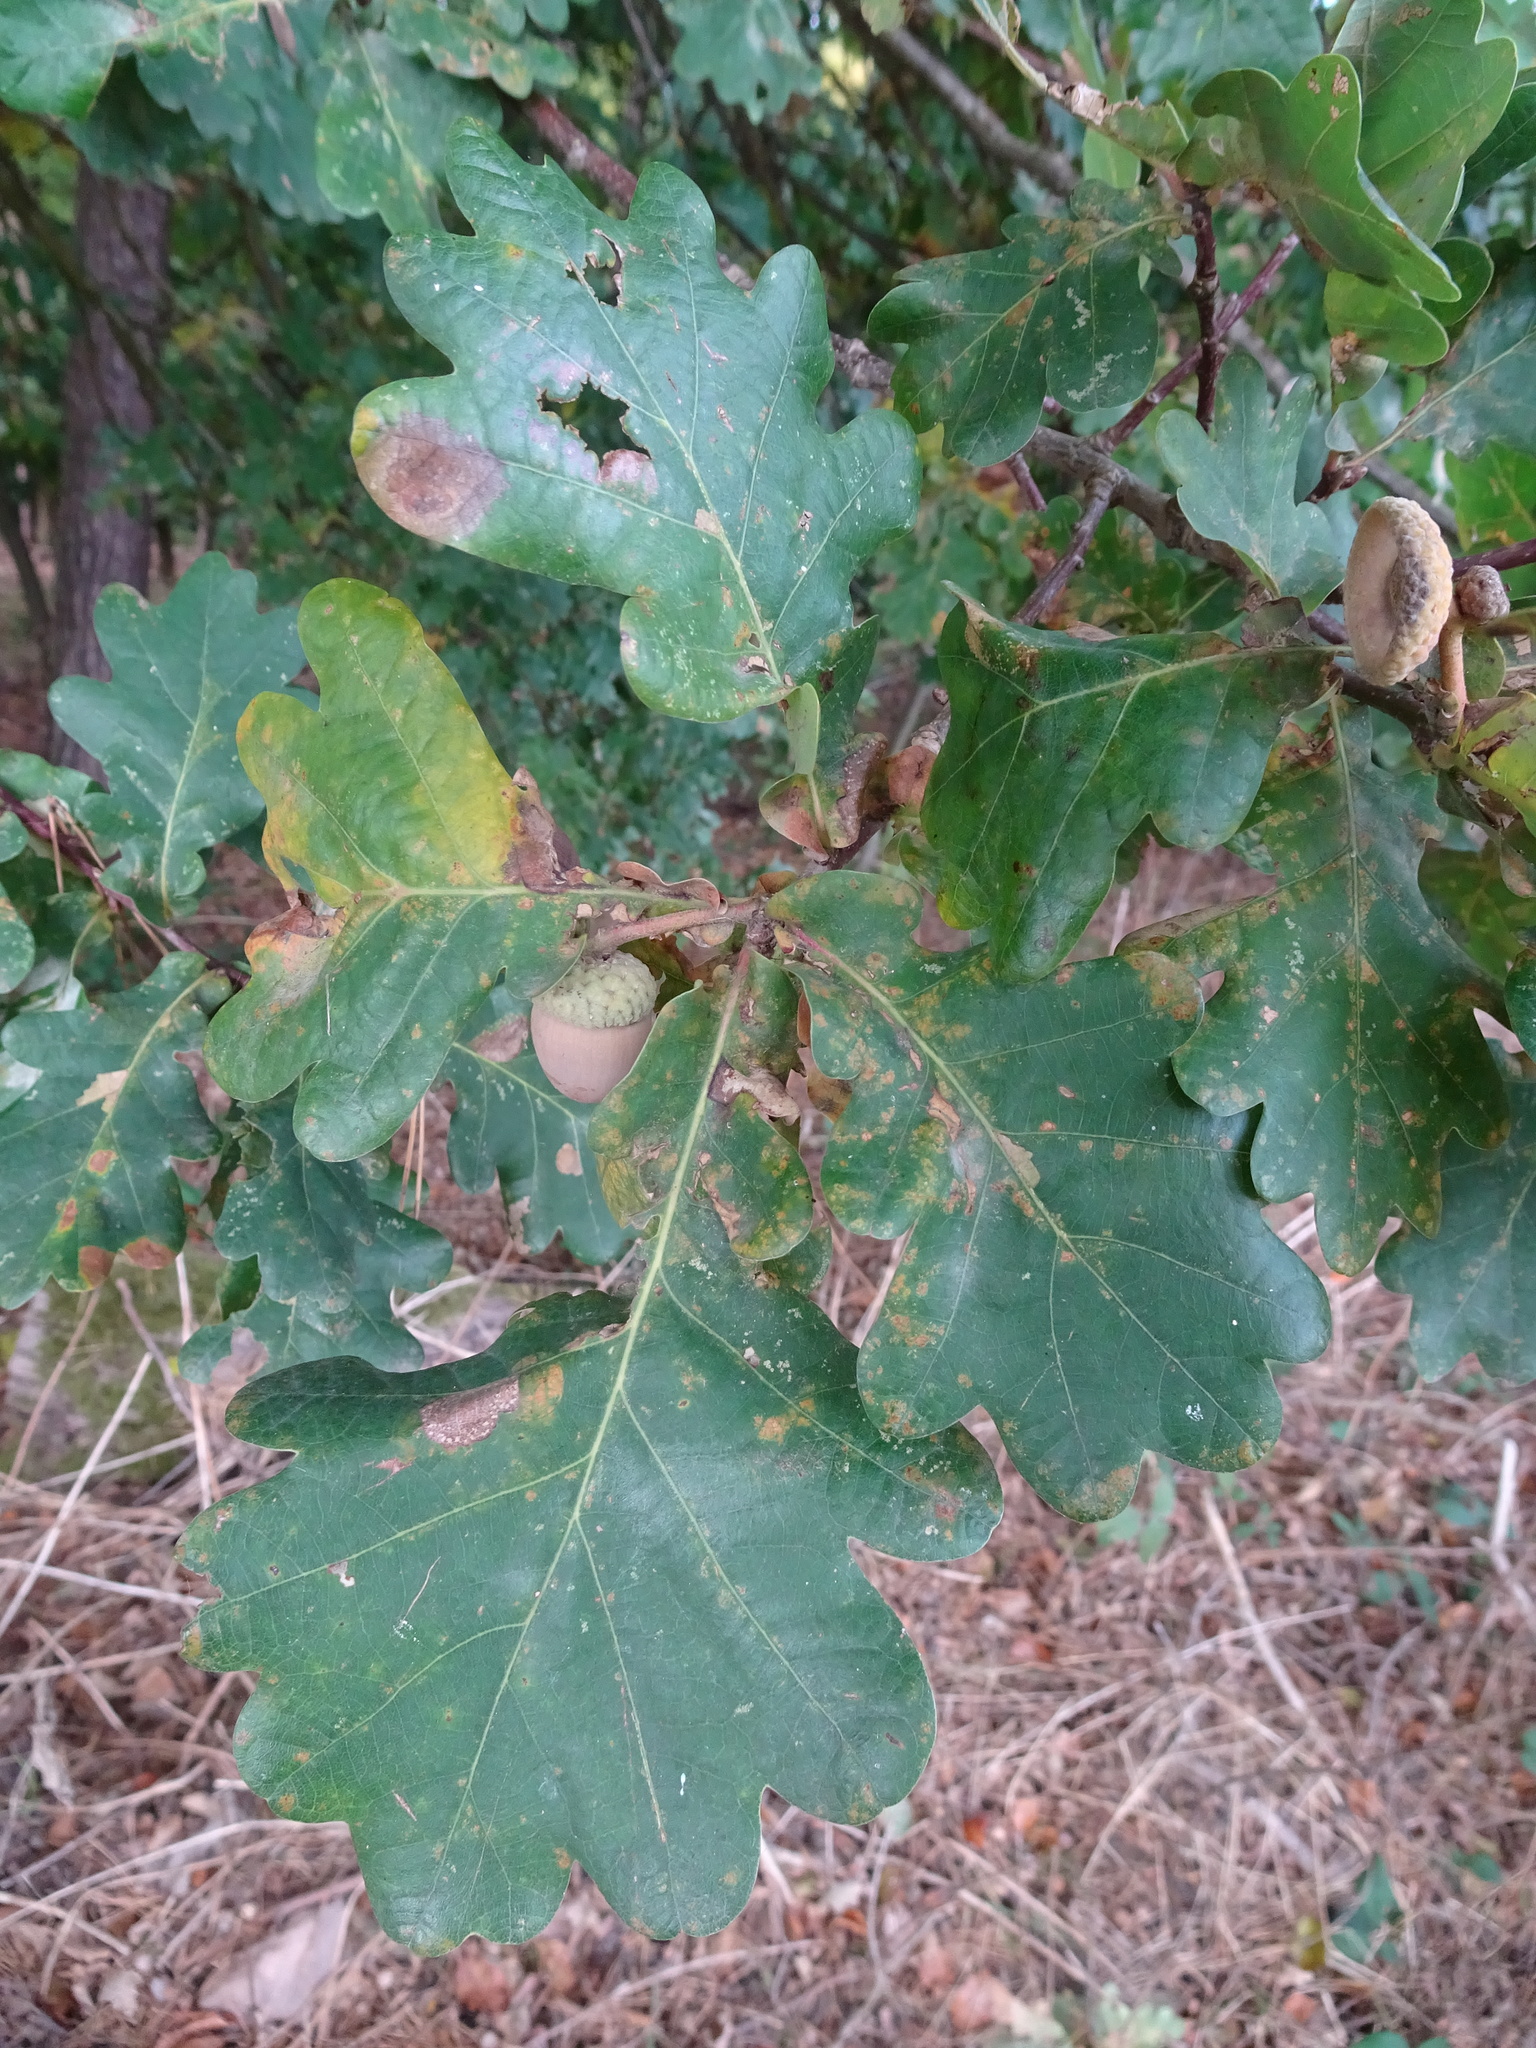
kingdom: Plantae
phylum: Tracheophyta
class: Magnoliopsida
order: Fagales
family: Fagaceae
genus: Quercus
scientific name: Quercus robur
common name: Pedunculate oak
